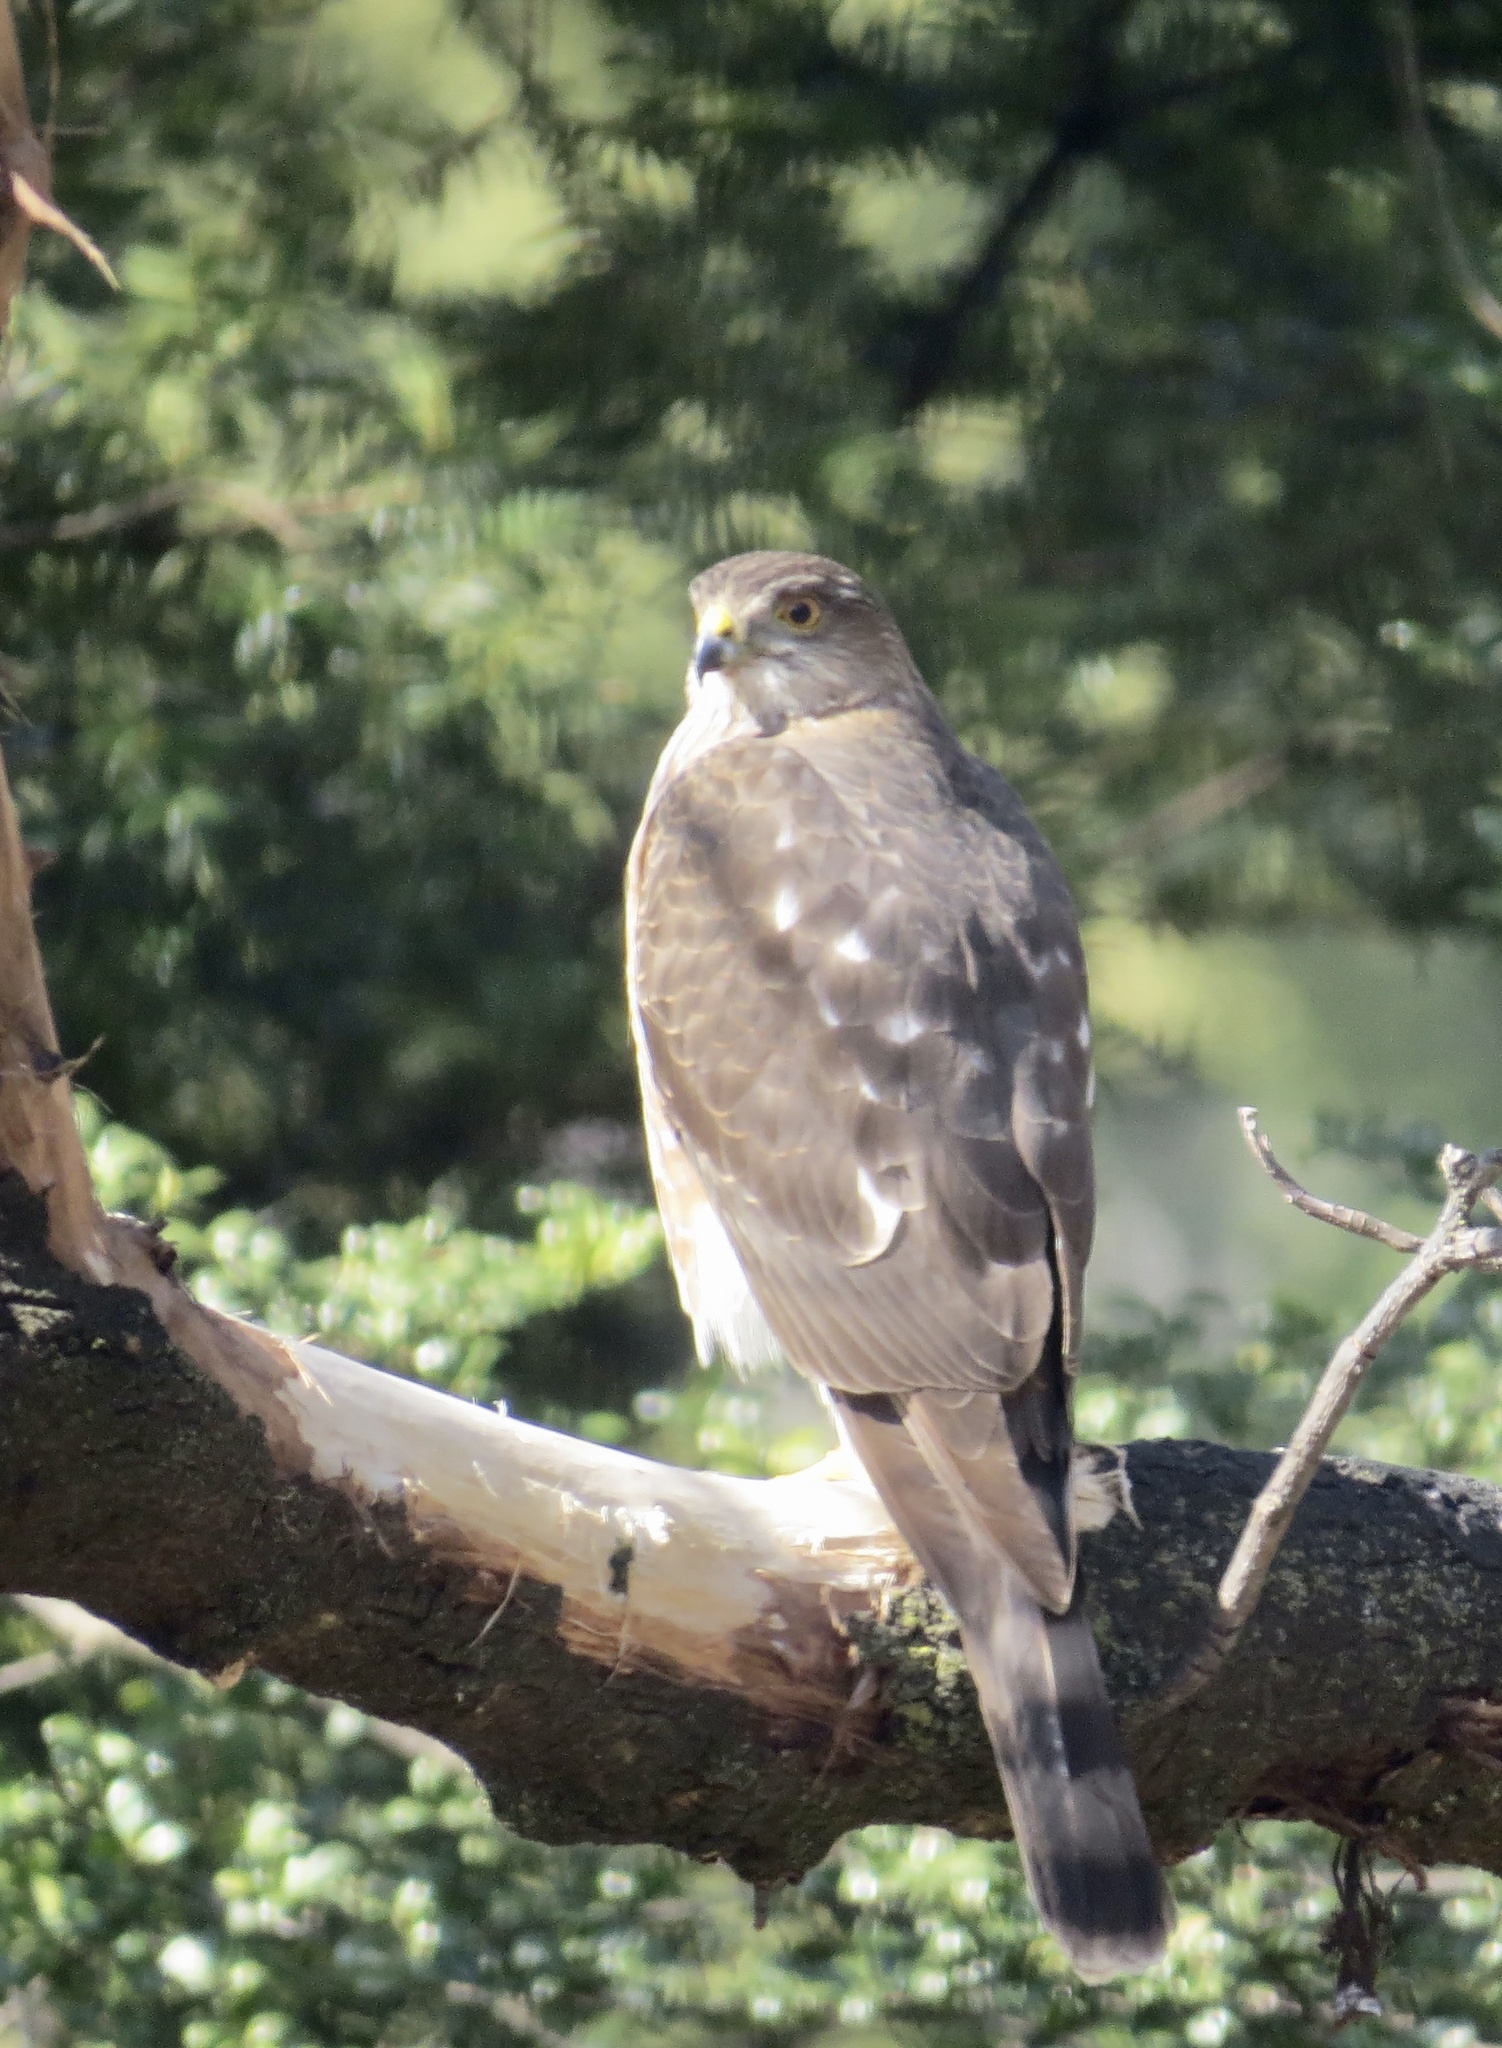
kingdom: Animalia
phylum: Chordata
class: Aves
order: Accipitriformes
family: Accipitridae
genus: Accipiter
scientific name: Accipiter striatus
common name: Sharp-shinned hawk
